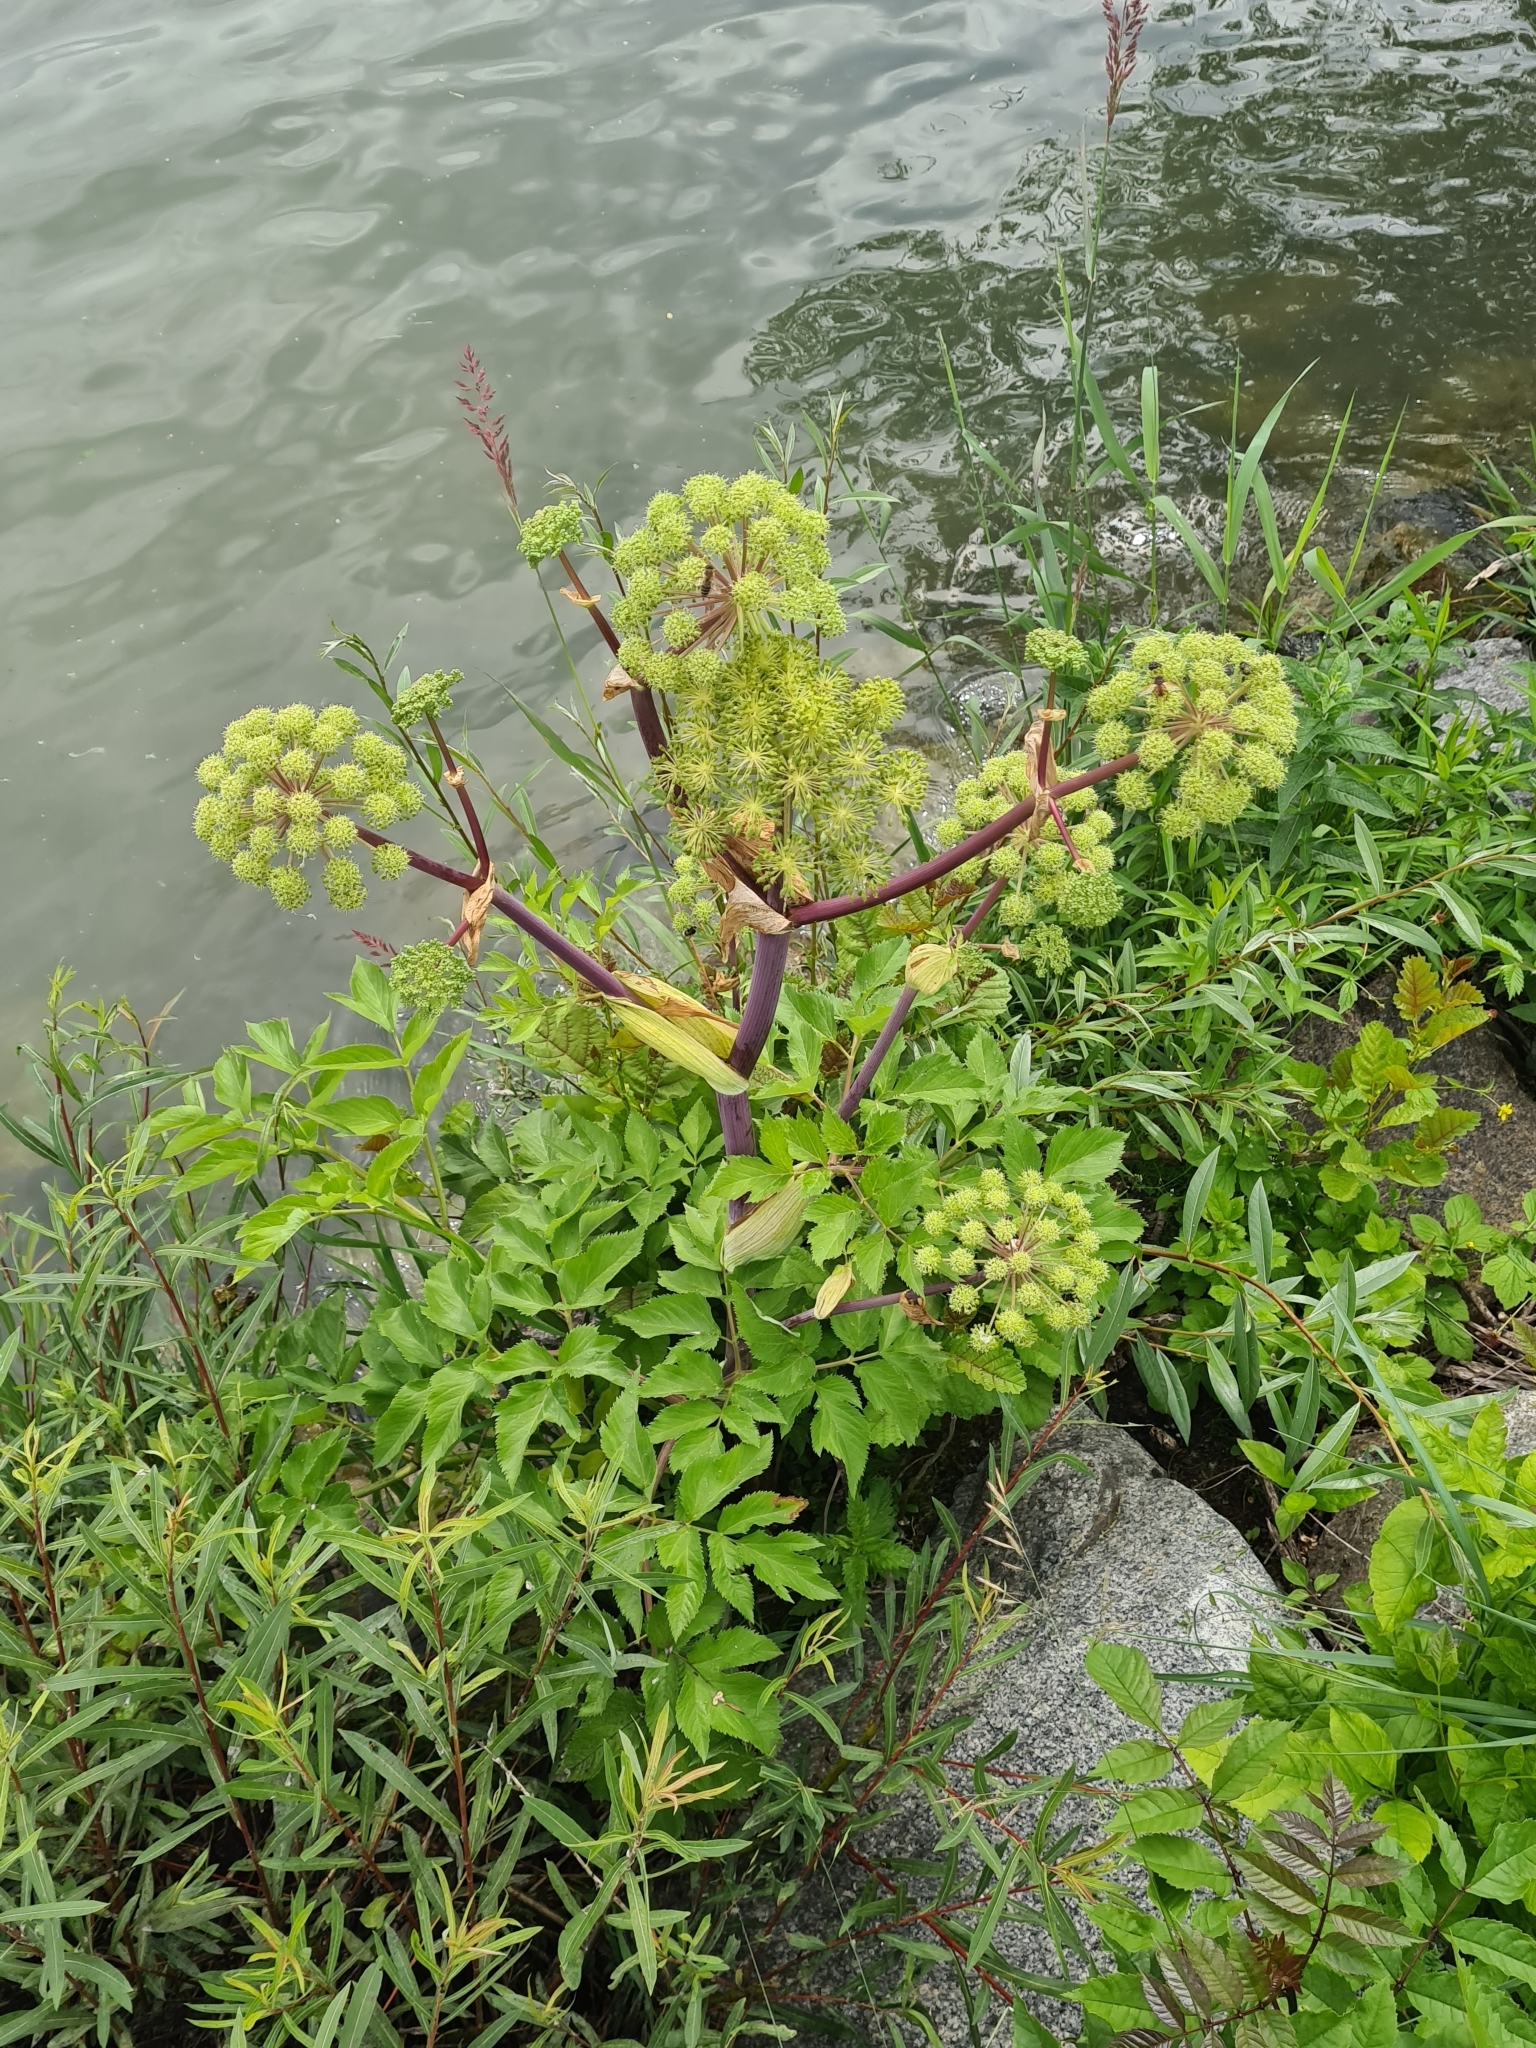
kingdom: Plantae
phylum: Tracheophyta
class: Magnoliopsida
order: Apiales
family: Apiaceae
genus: Angelica
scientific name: Angelica archangelica
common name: Garden angelica
